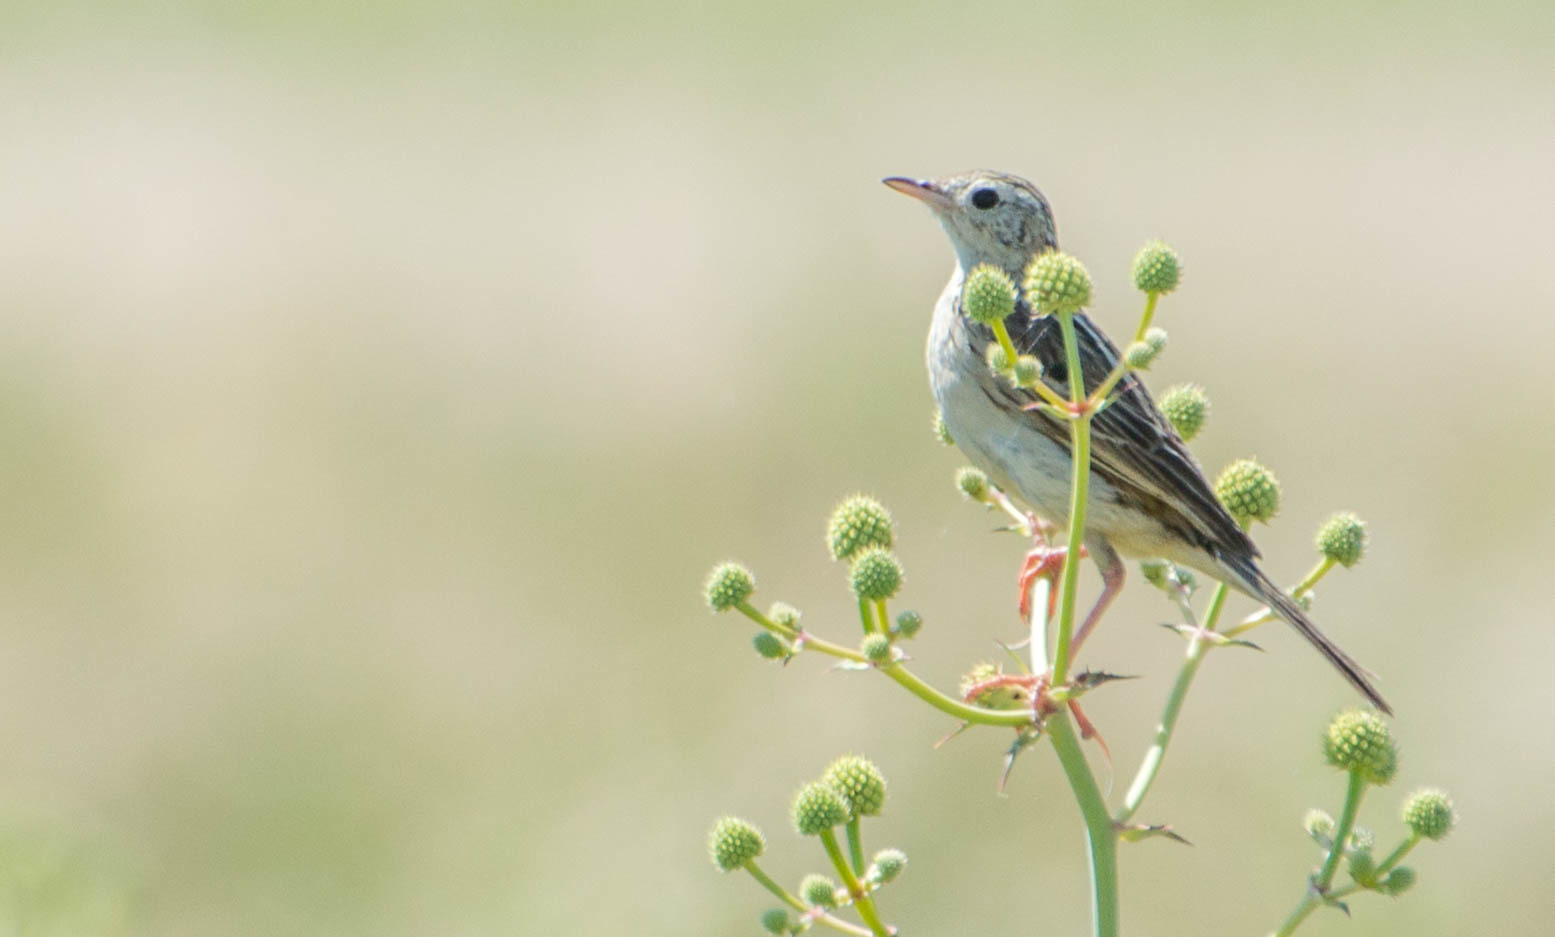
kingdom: Animalia
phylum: Chordata
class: Aves
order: Passeriformes
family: Motacillidae
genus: Anthus
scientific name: Anthus correndera
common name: Correndera pipit
